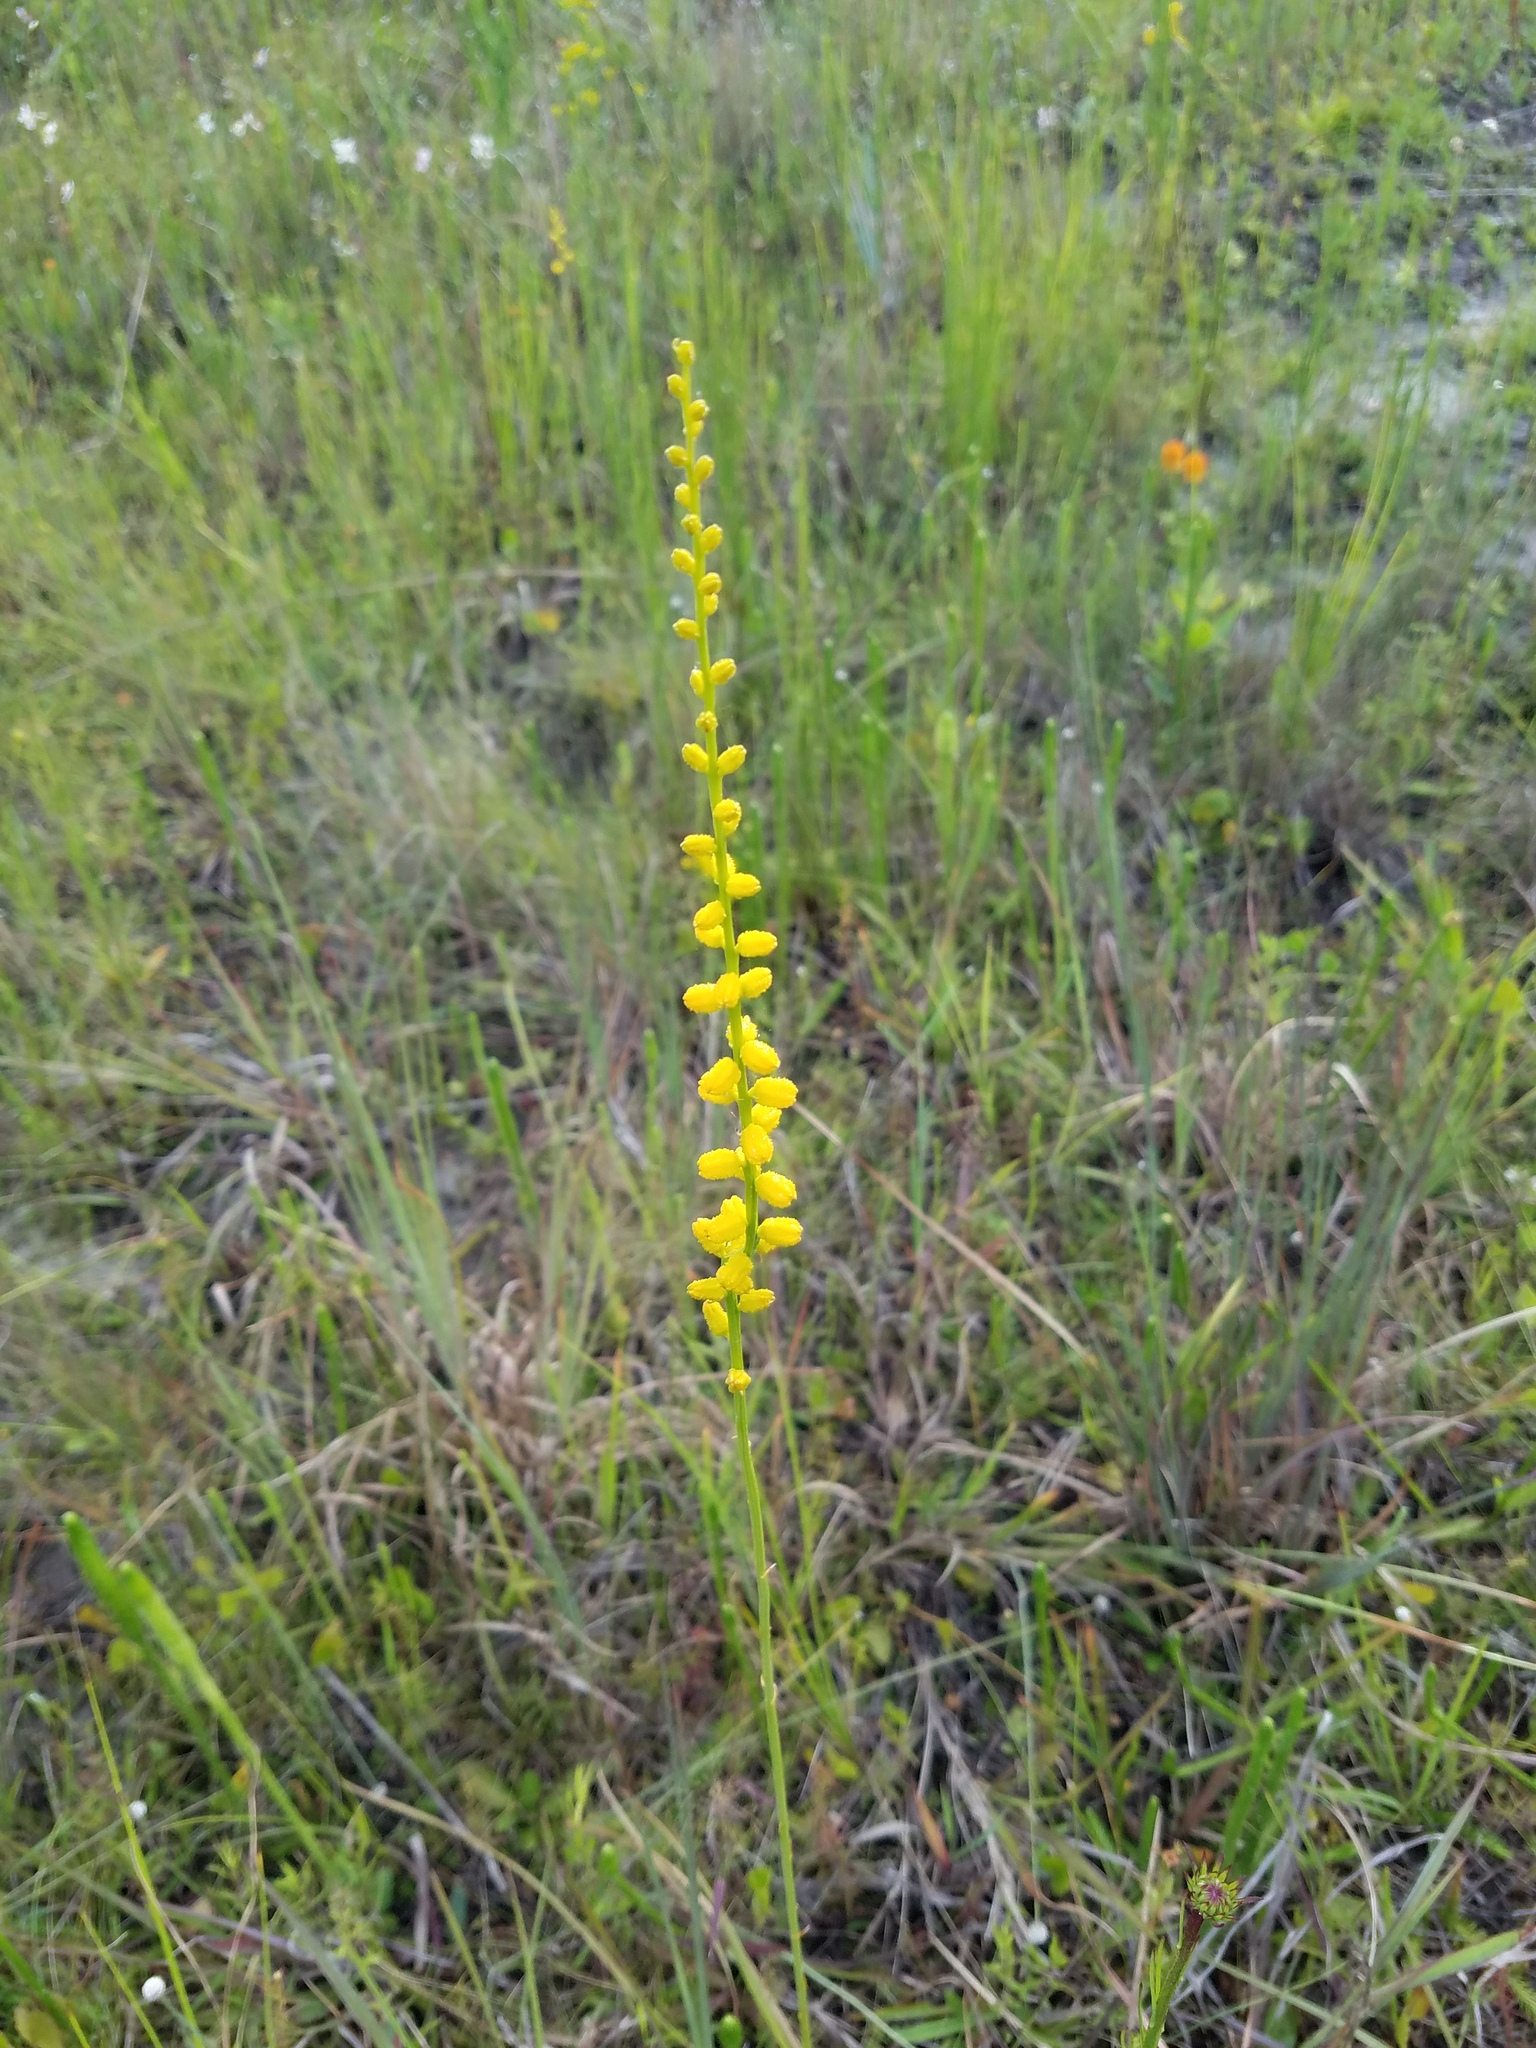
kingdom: Plantae
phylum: Tracheophyta
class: Liliopsida
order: Dioscoreales
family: Nartheciaceae
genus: Aletris
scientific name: Aletris lutea
